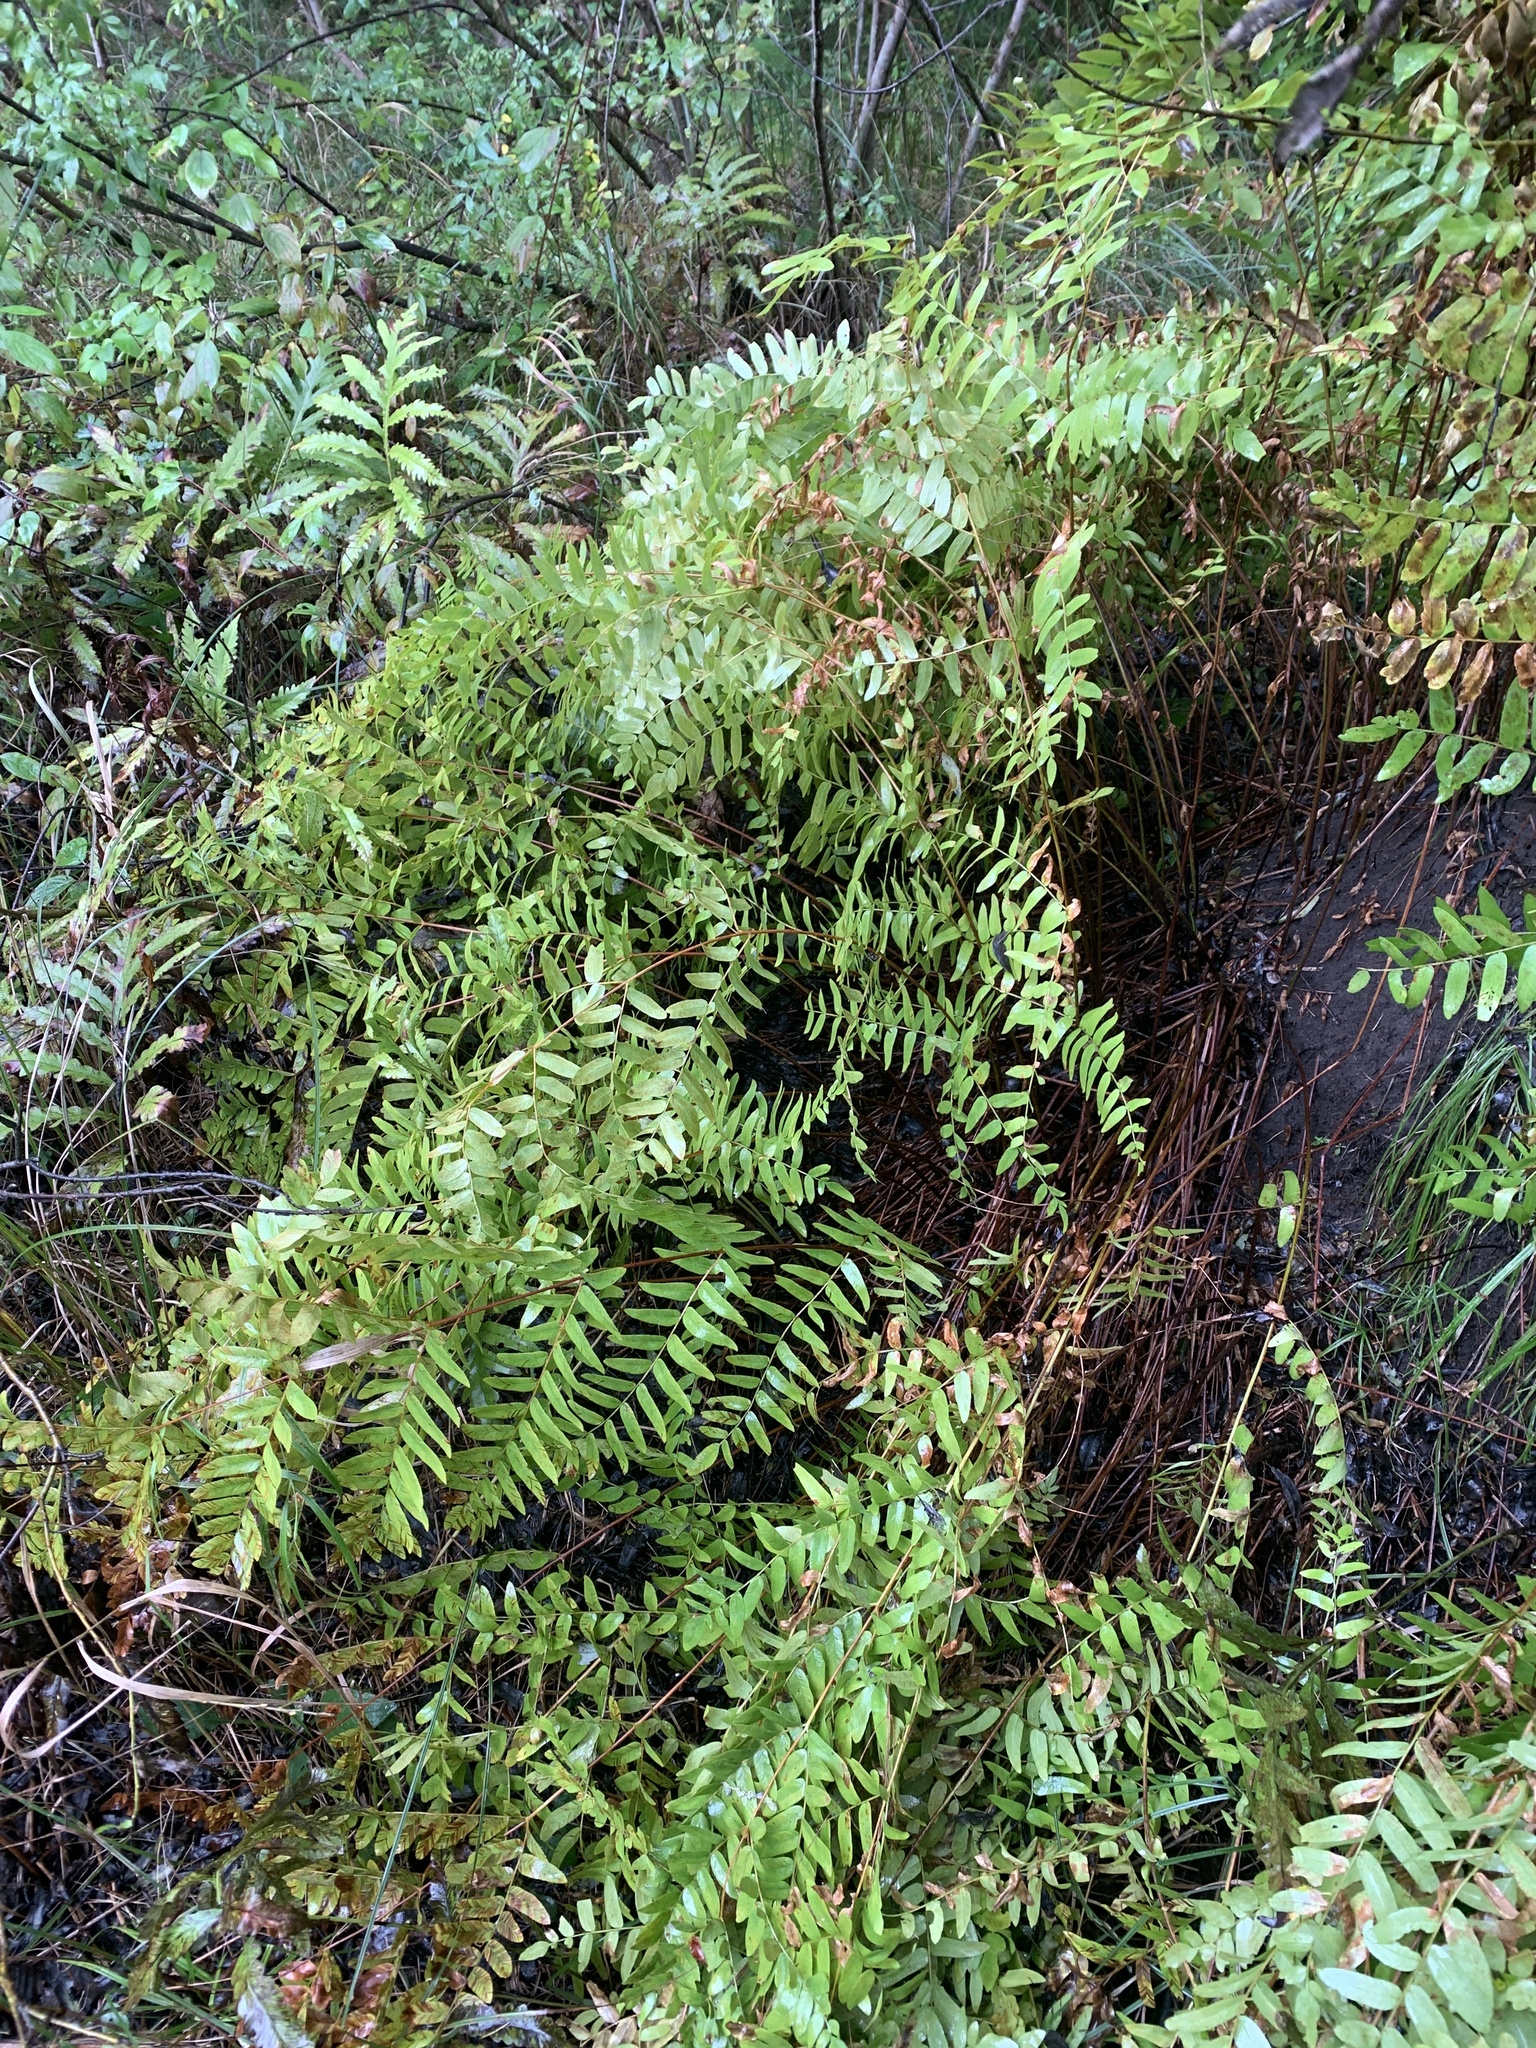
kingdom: Plantae
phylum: Tracheophyta
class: Polypodiopsida
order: Osmundales
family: Osmundaceae
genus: Osmunda
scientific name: Osmunda spectabilis
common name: American royal fern
